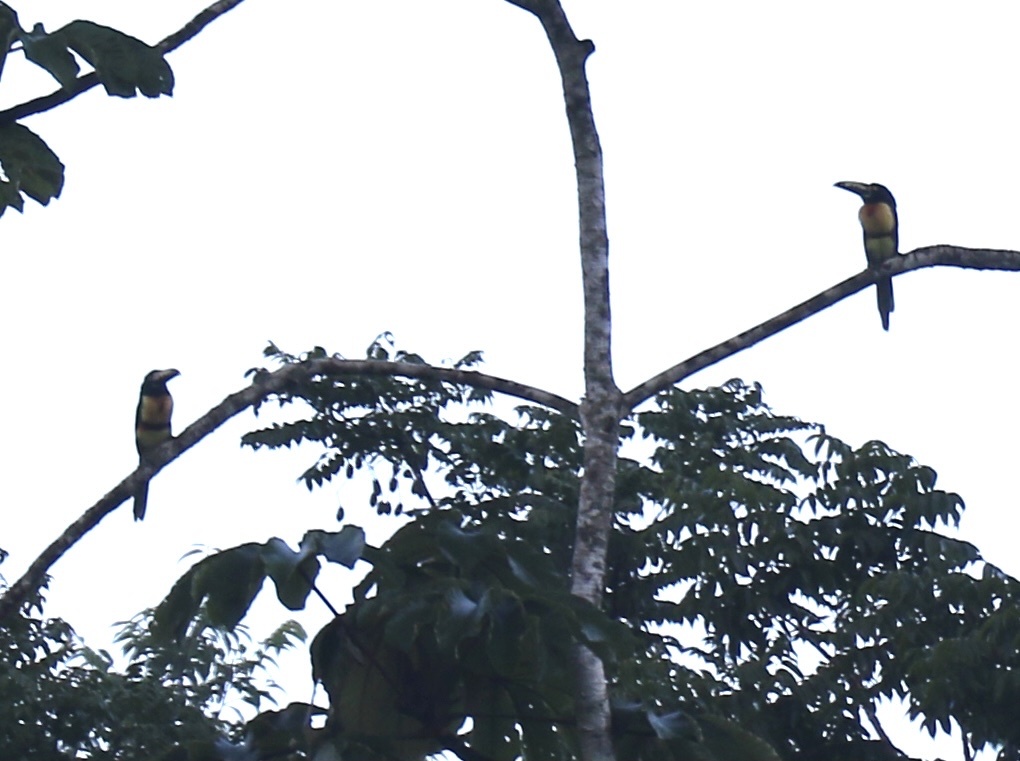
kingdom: Animalia
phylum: Chordata
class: Aves
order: Piciformes
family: Ramphastidae
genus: Pteroglossus
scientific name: Pteroglossus torquatus
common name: Collared aracari
